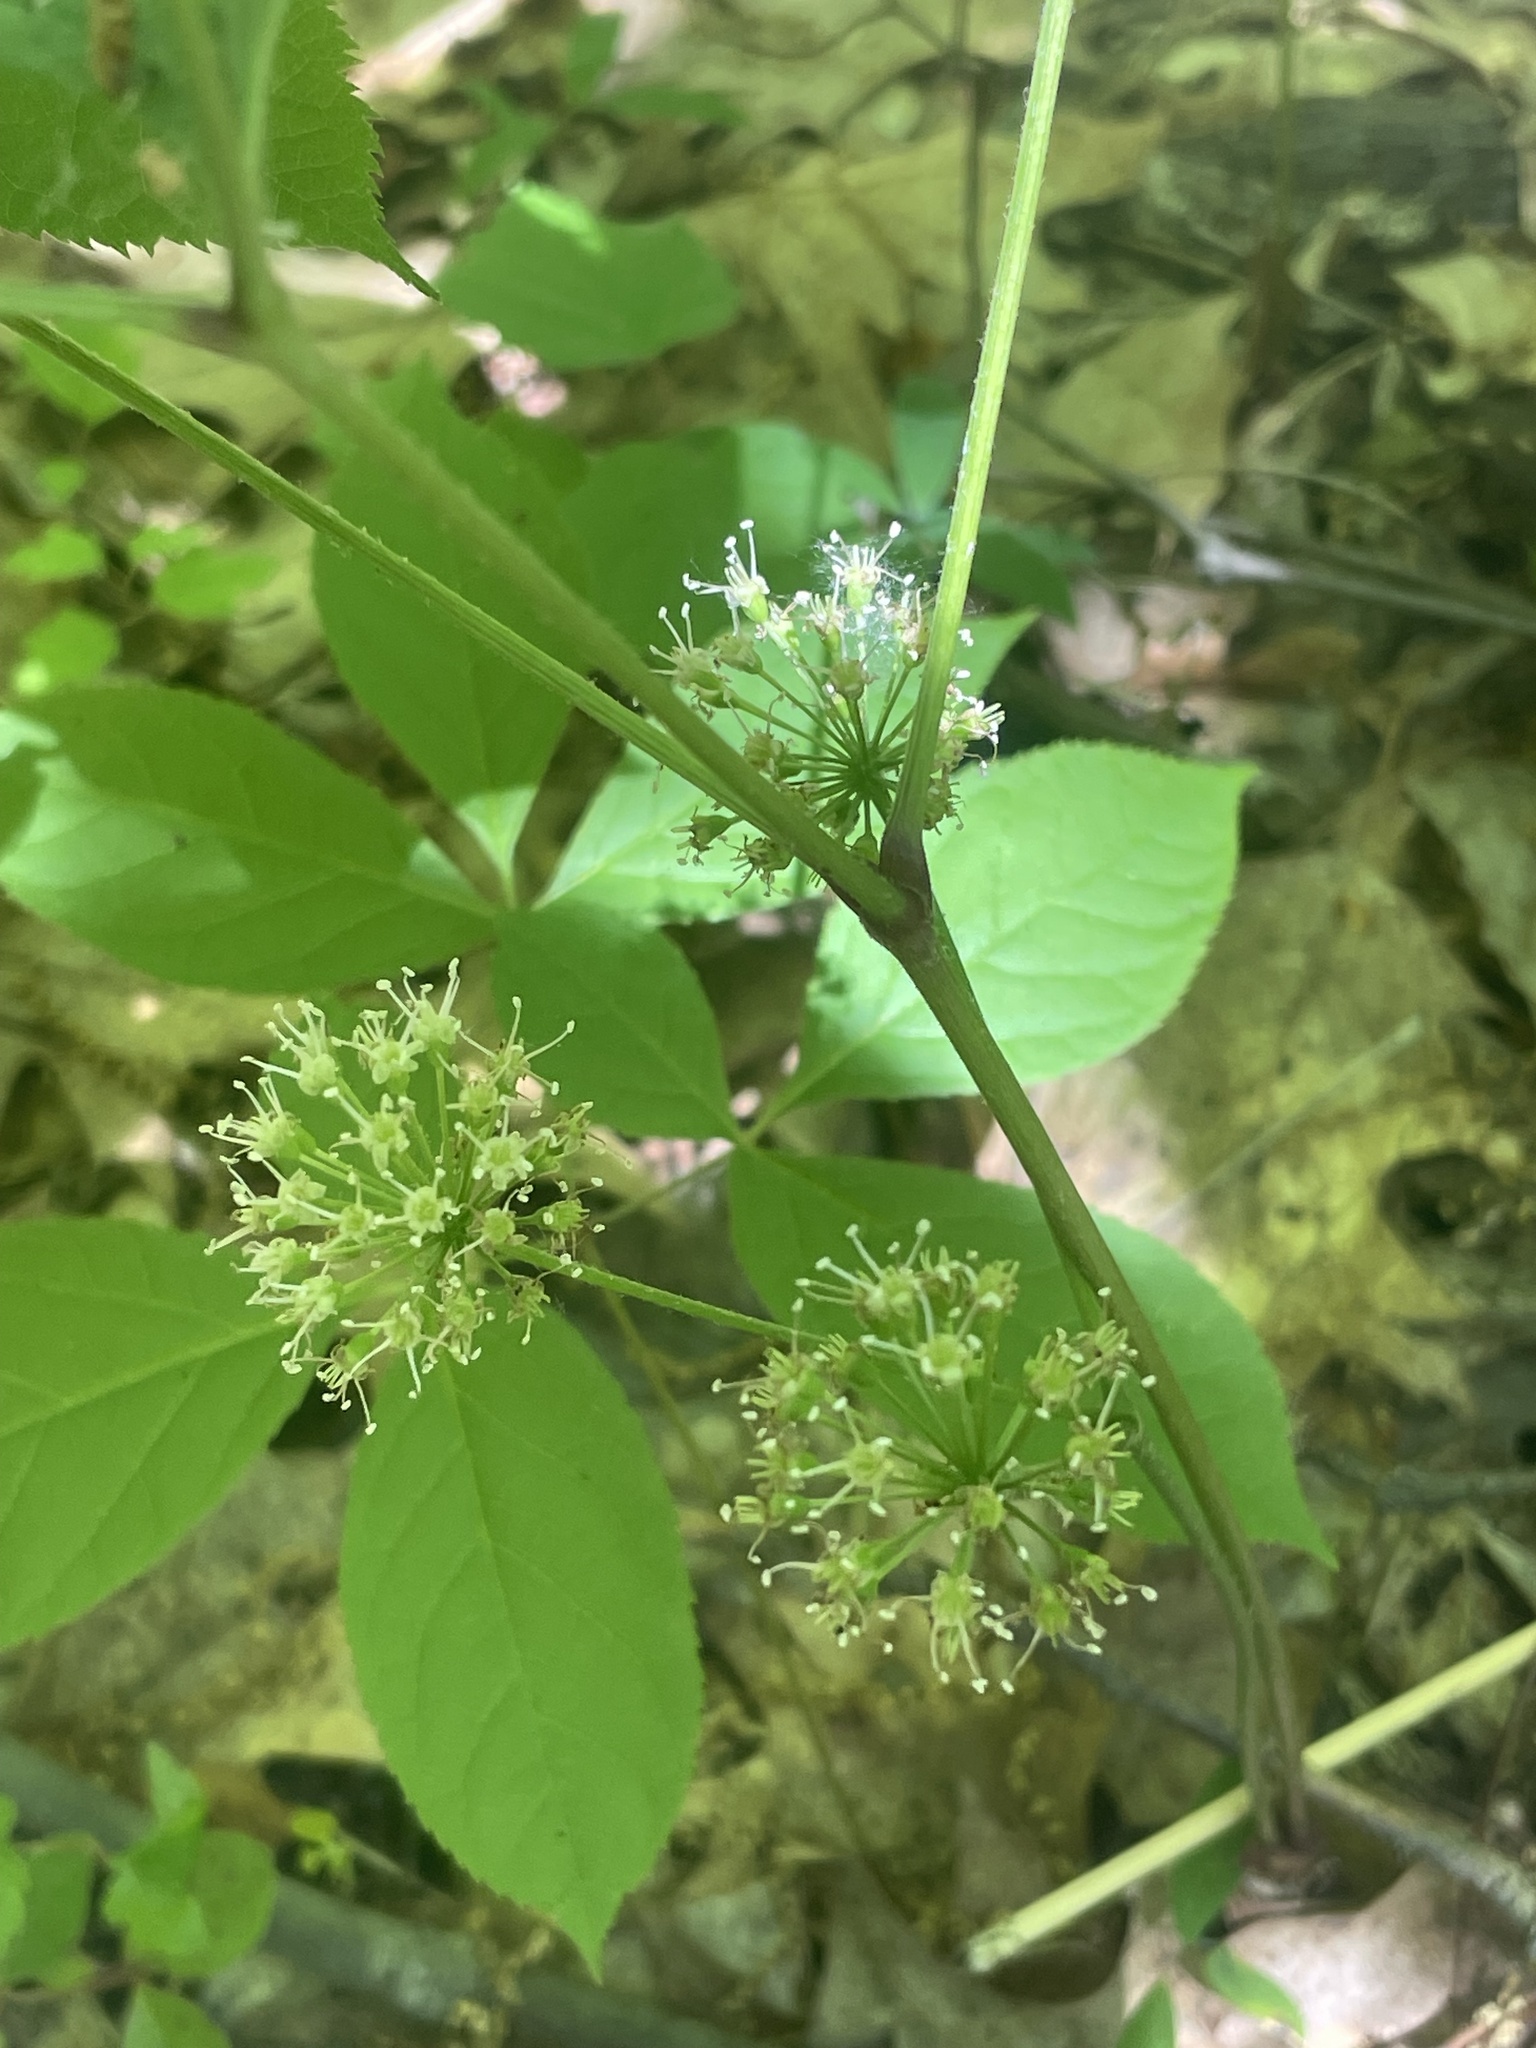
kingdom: Plantae
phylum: Tracheophyta
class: Magnoliopsida
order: Apiales
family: Araliaceae
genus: Aralia
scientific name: Aralia nudicaulis
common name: Wild sarsaparilla
